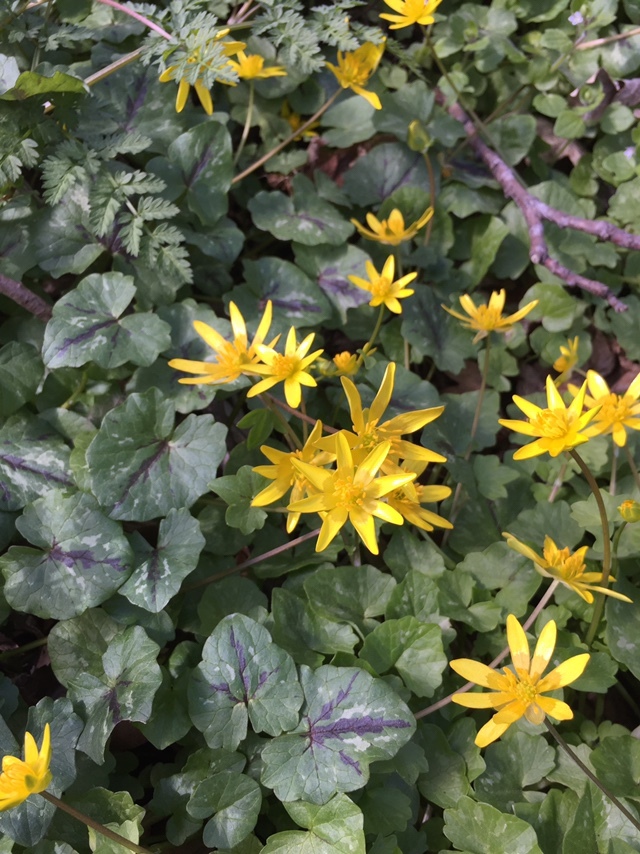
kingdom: Plantae
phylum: Tracheophyta
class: Magnoliopsida
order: Ranunculales
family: Ranunculaceae
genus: Ficaria
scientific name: Ficaria verna
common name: Lesser celandine
